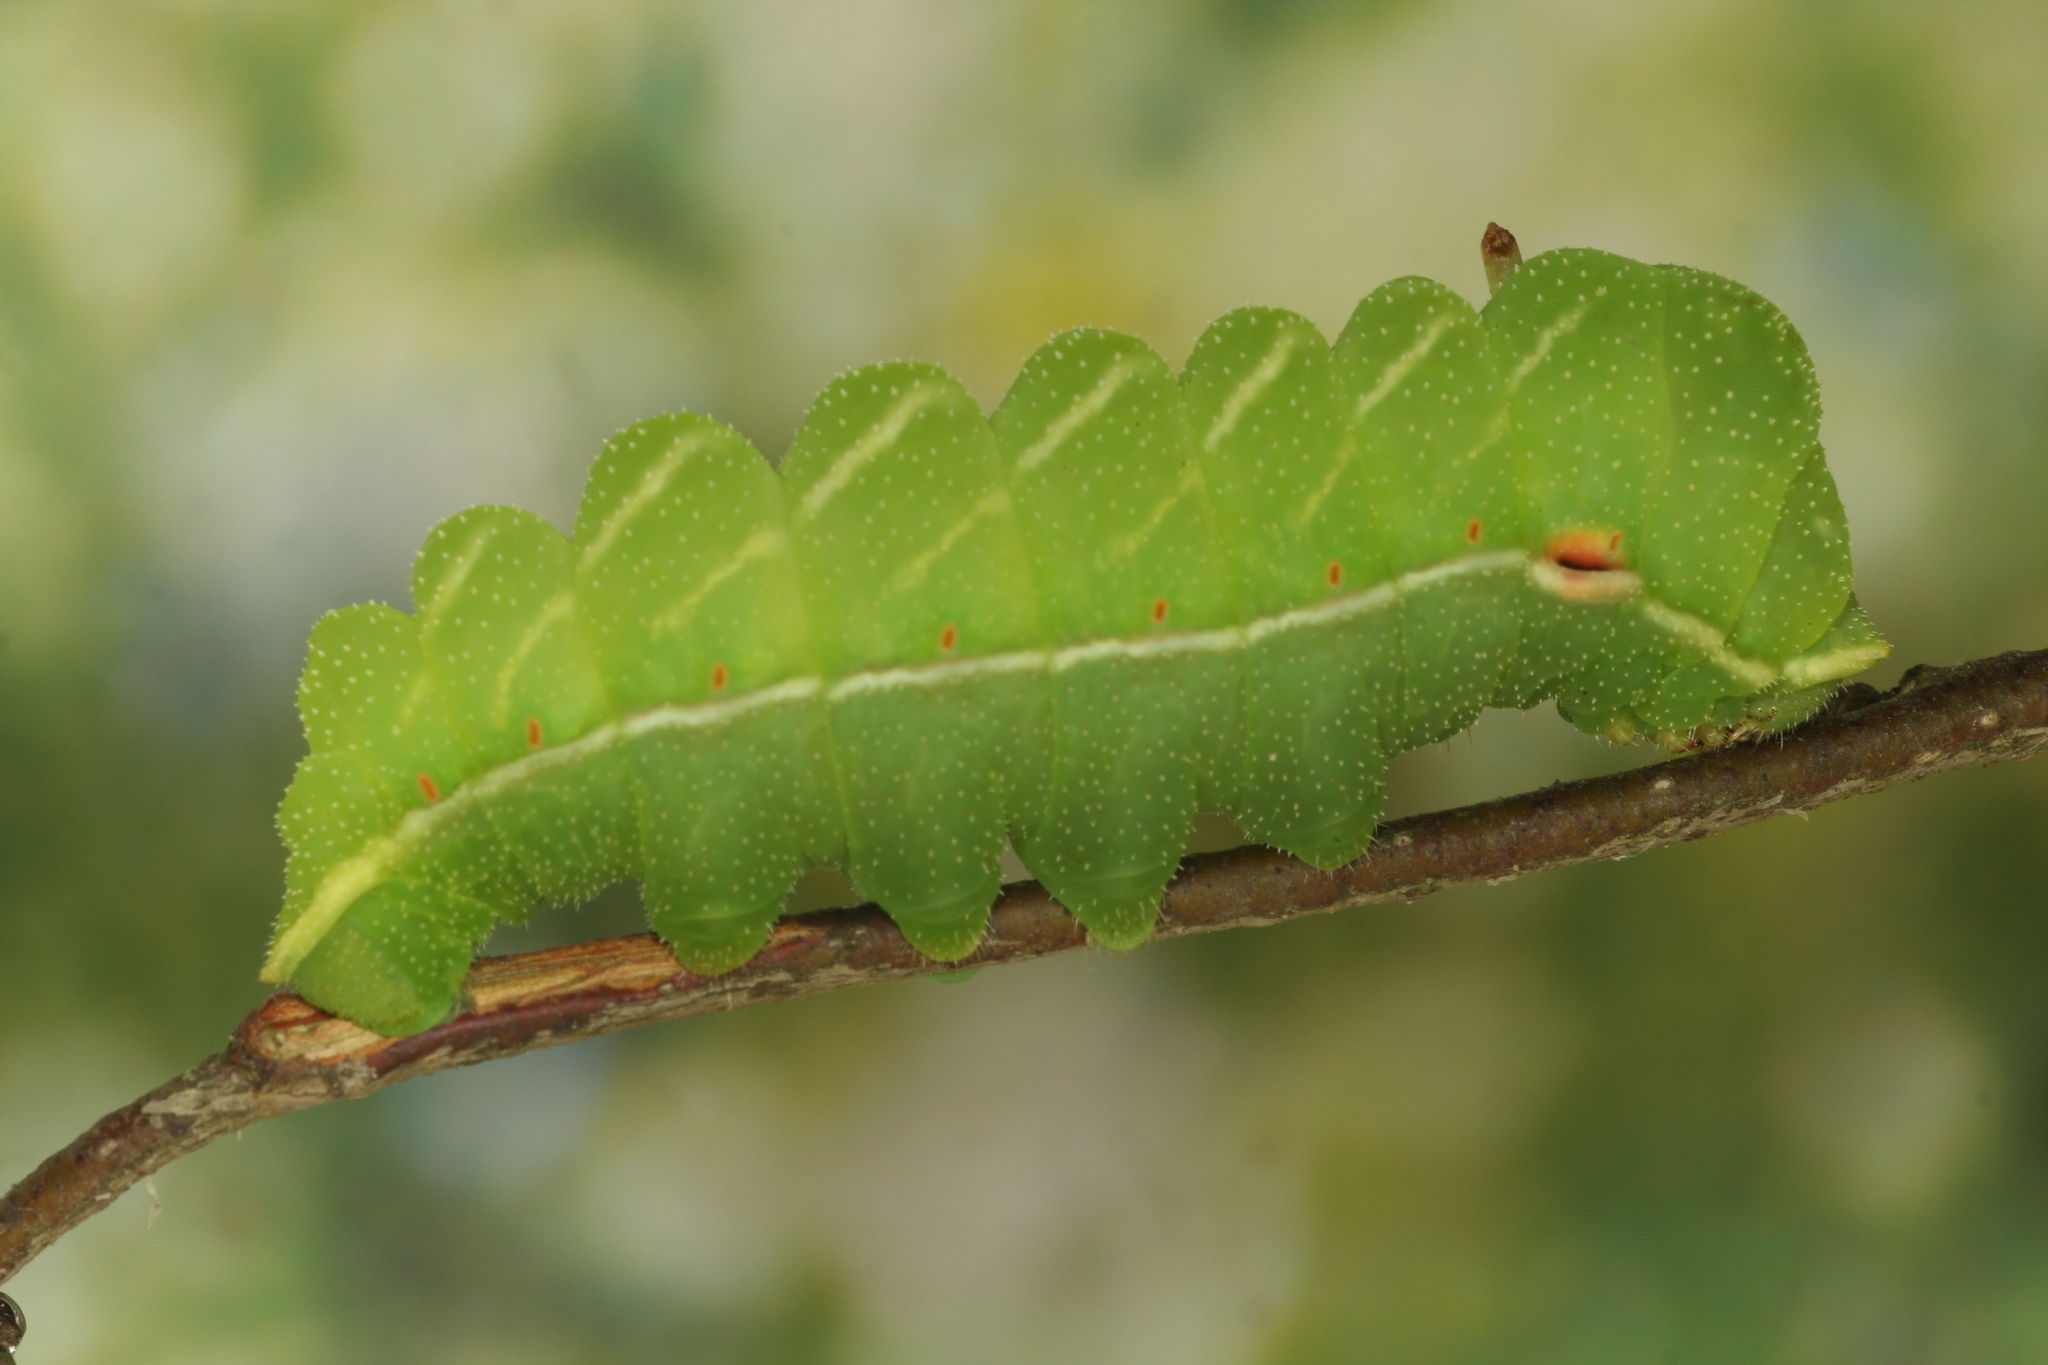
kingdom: Animalia
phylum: Arthropoda
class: Insecta
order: Lepidoptera
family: Saturniidae
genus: Aglia
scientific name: Aglia tau
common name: Tau emperor
